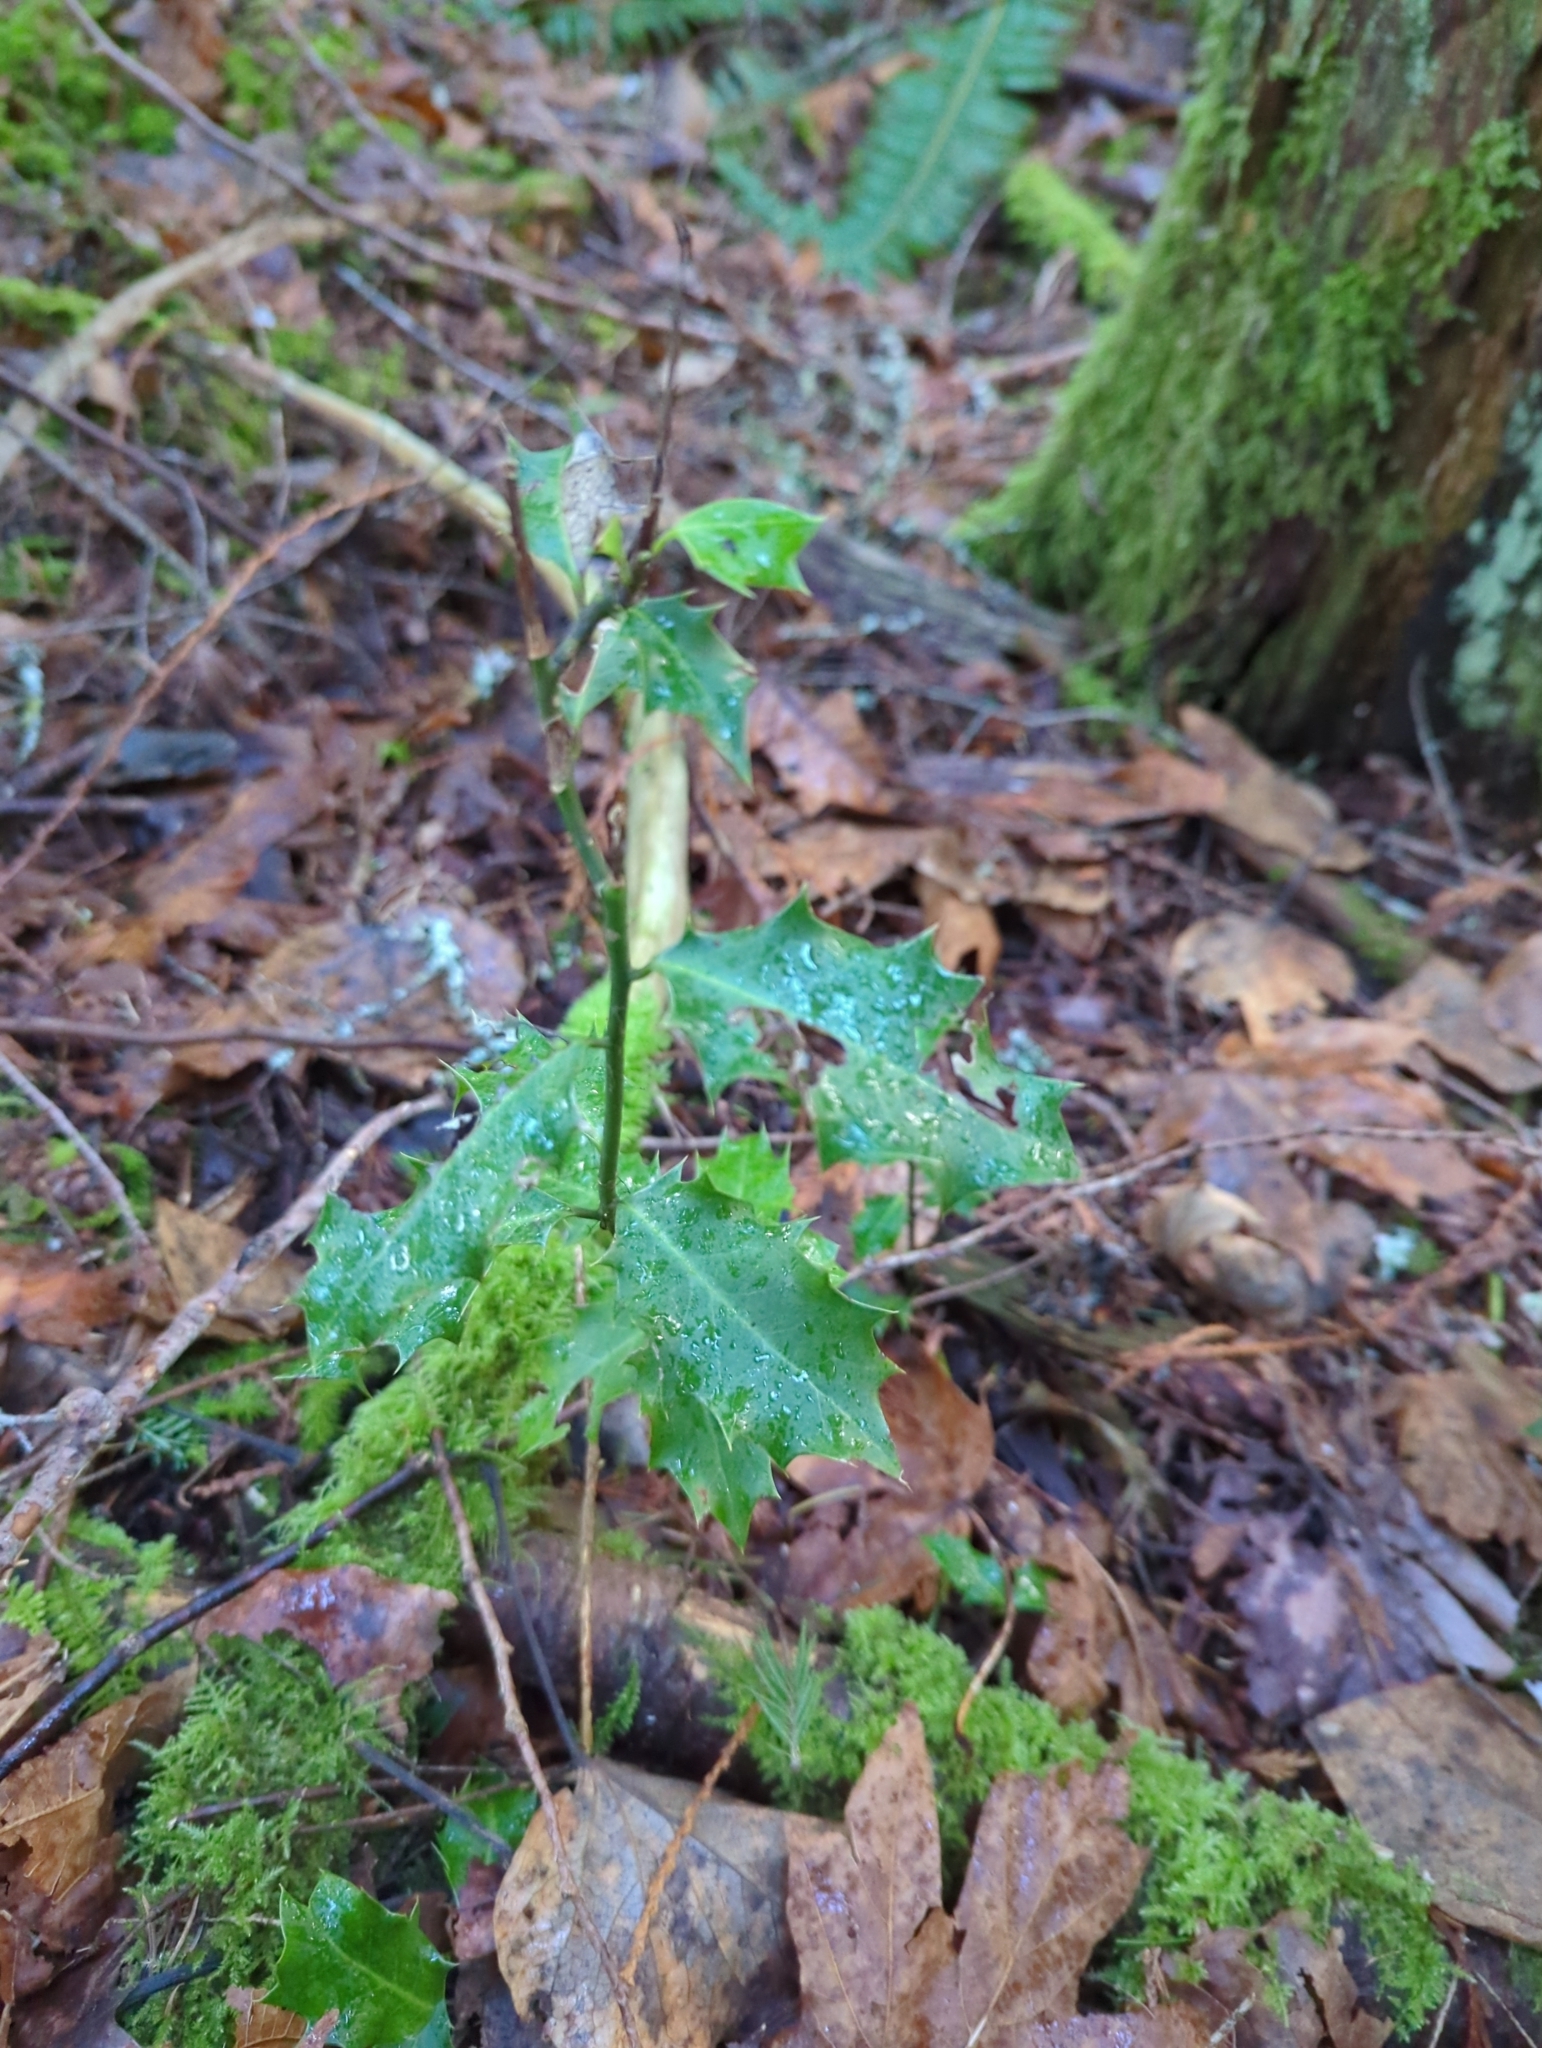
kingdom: Plantae
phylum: Tracheophyta
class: Magnoliopsida
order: Aquifoliales
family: Aquifoliaceae
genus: Ilex
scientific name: Ilex aquifolium
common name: English holly
